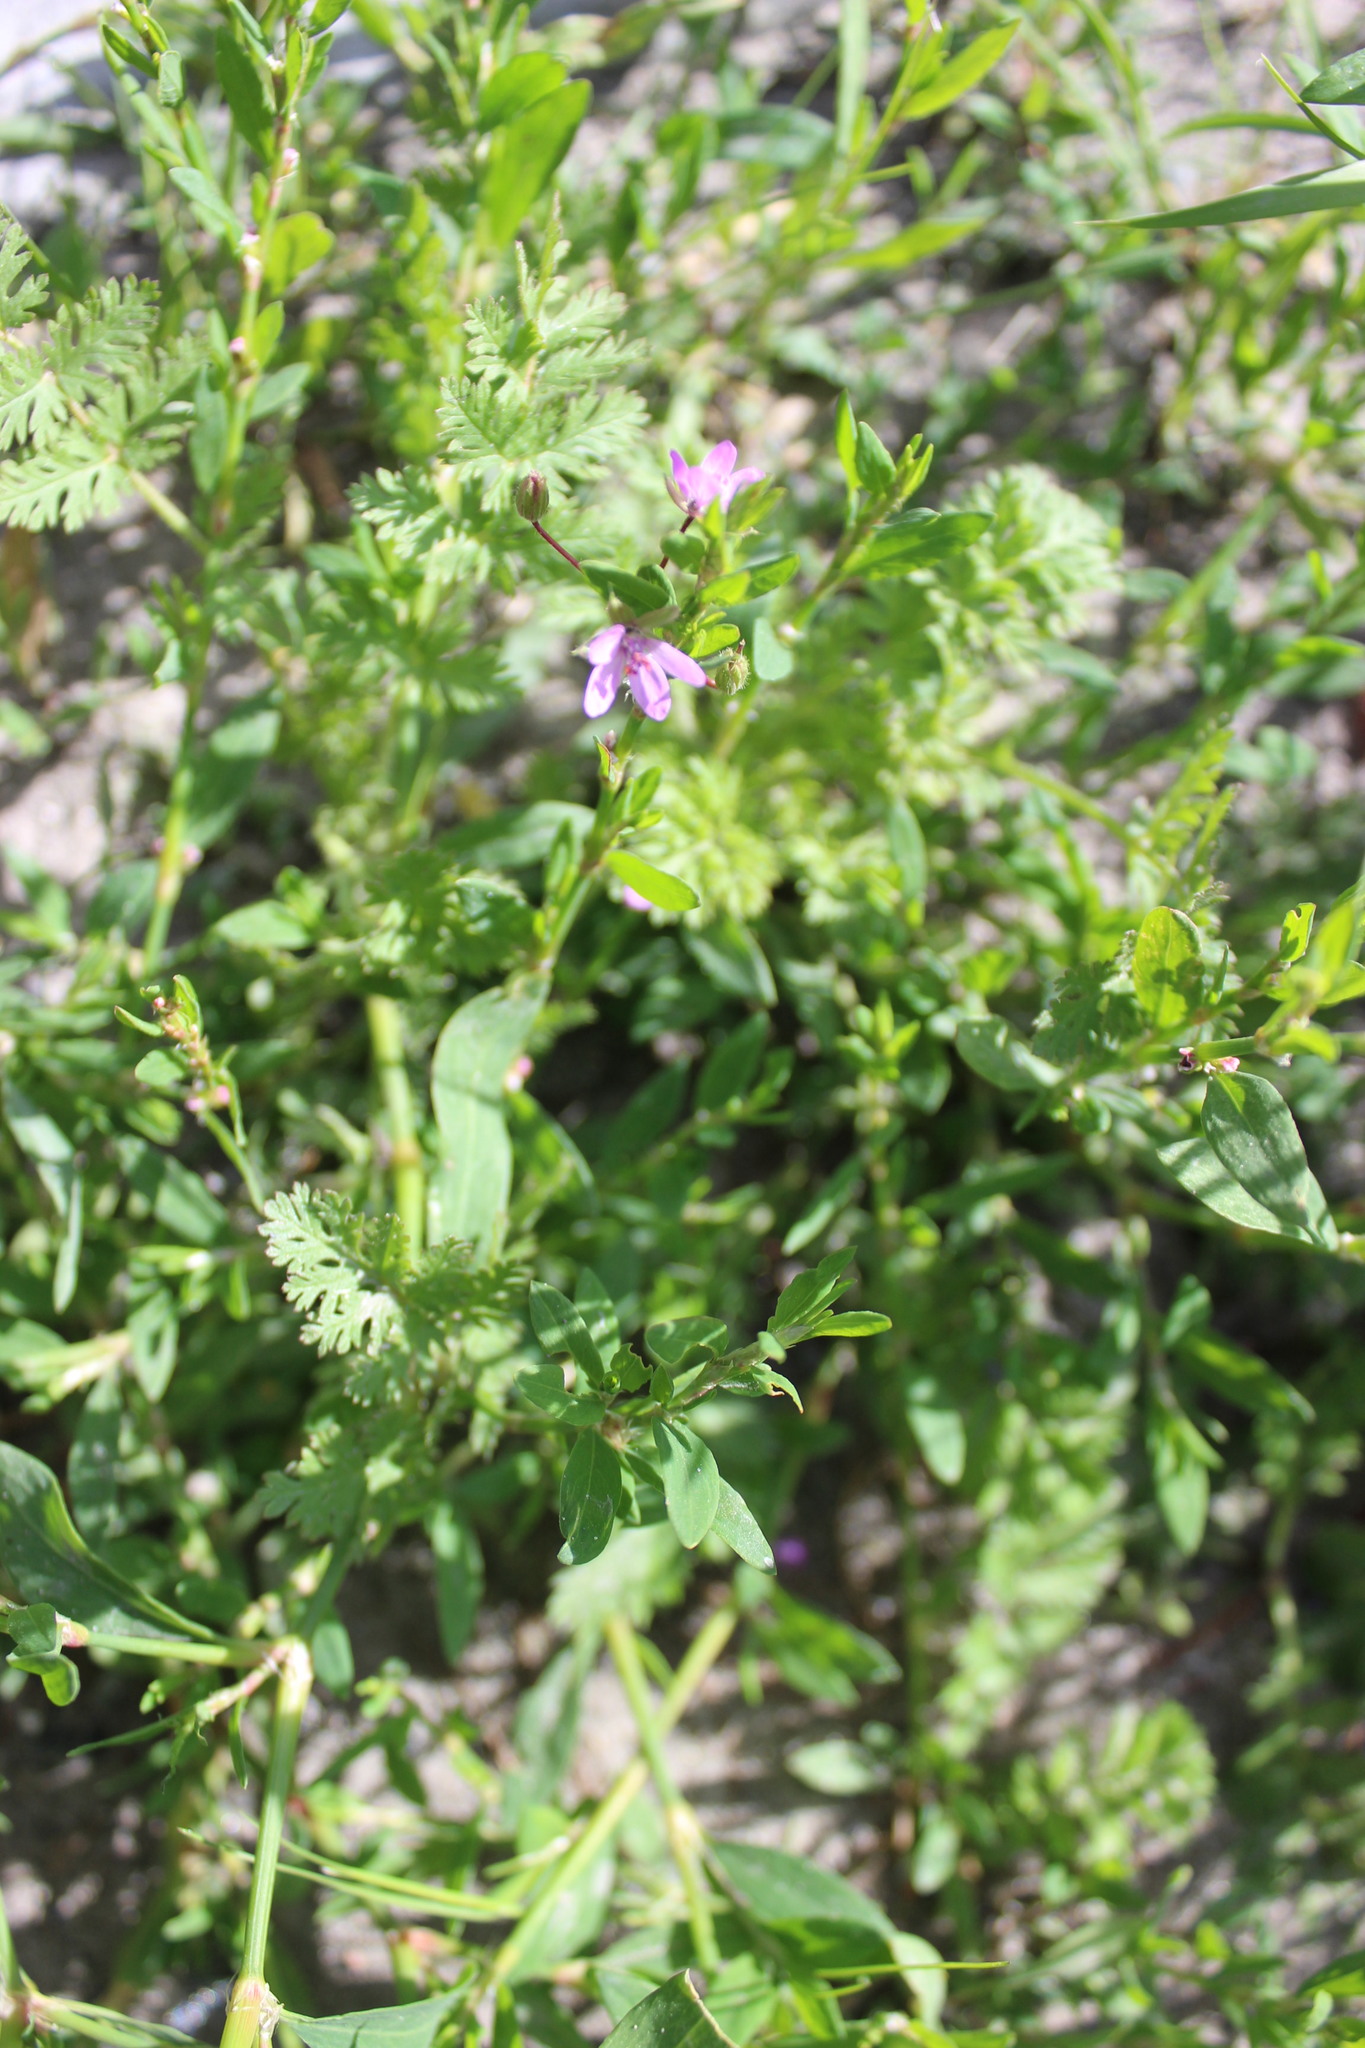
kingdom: Plantae
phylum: Tracheophyta
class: Magnoliopsida
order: Geraniales
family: Geraniaceae
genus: Erodium
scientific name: Erodium cicutarium
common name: Common stork's-bill
